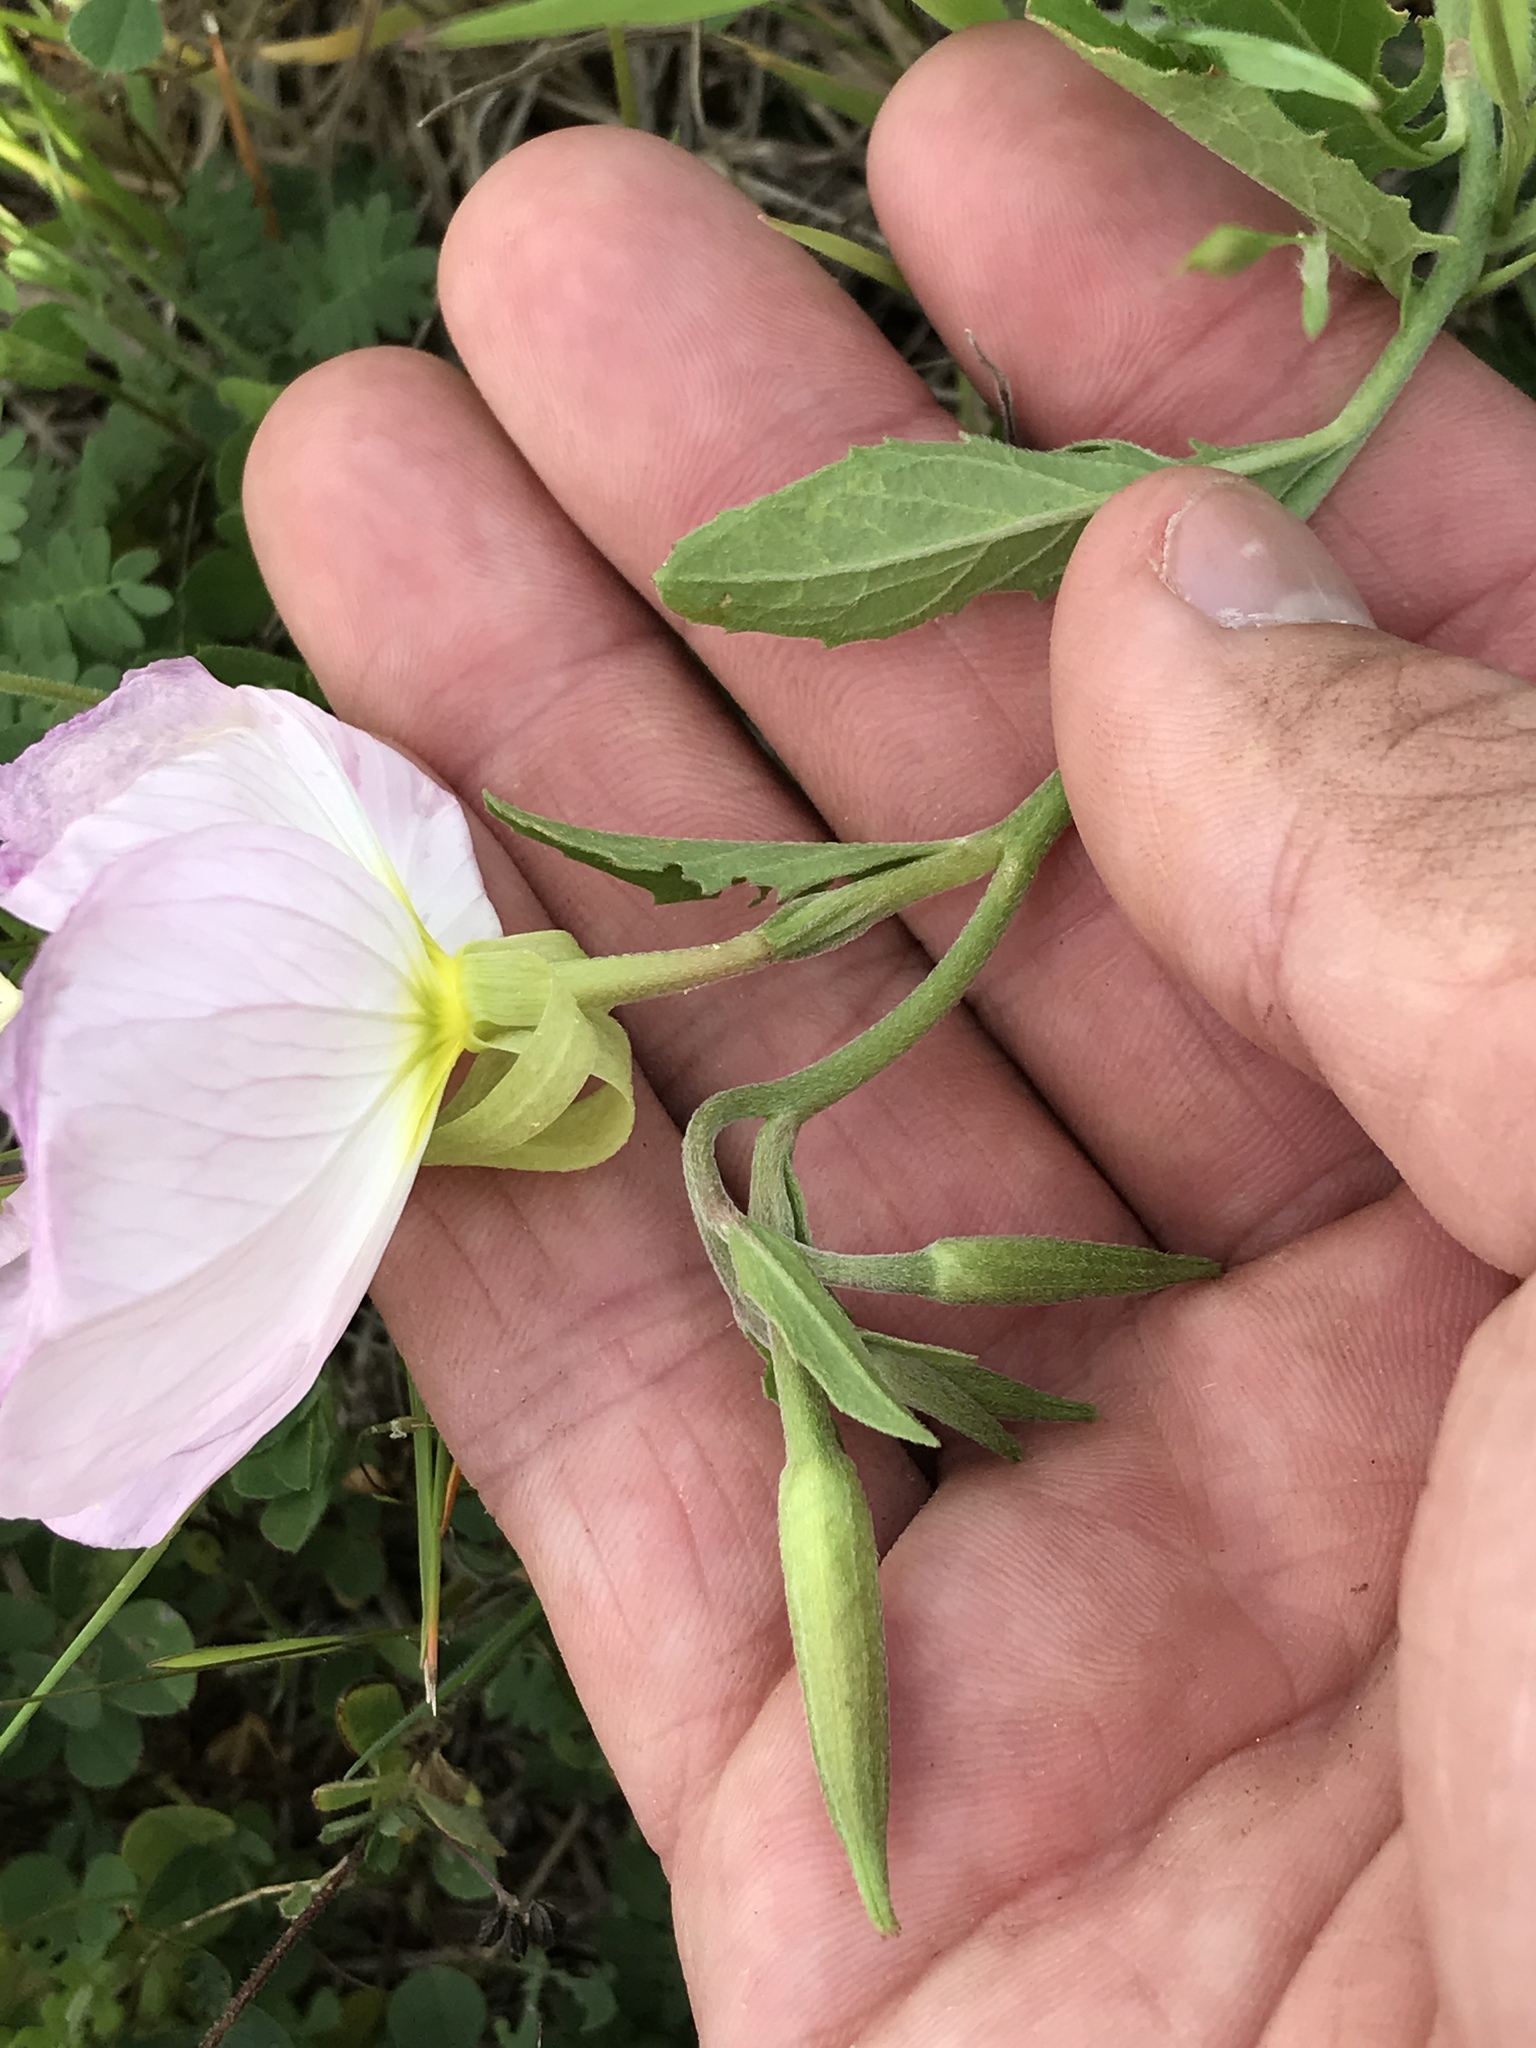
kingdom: Plantae
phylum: Tracheophyta
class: Magnoliopsida
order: Myrtales
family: Onagraceae
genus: Oenothera
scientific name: Oenothera speciosa
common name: White evening-primrose
